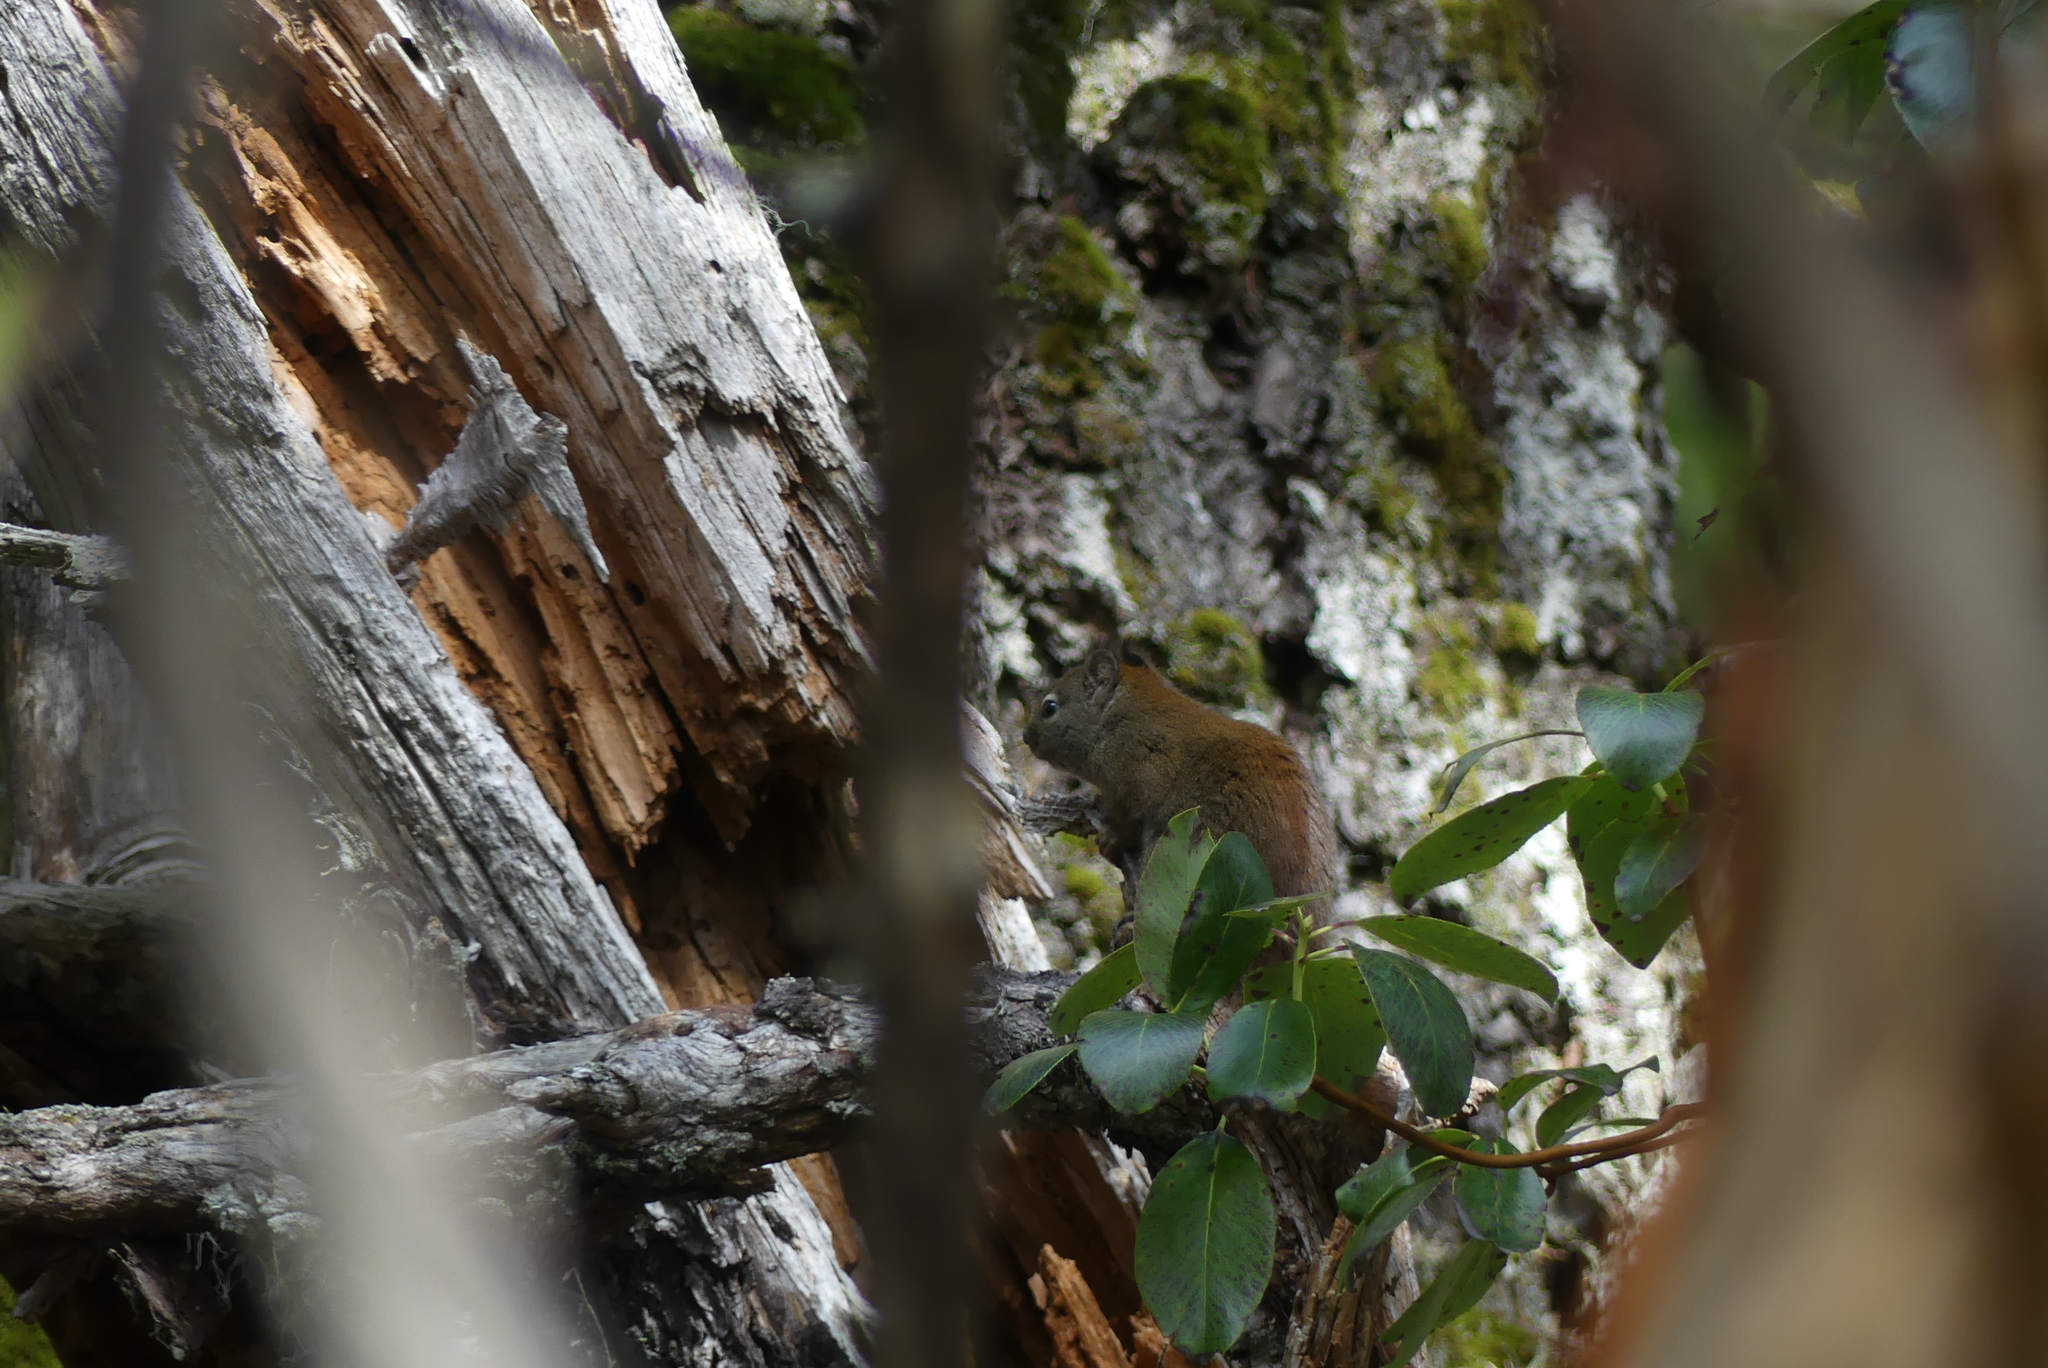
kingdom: Animalia
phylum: Chordata
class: Mammalia
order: Rodentia
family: Sciuridae
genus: Tamiasciurus
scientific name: Tamiasciurus hudsonicus
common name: Red squirrel
